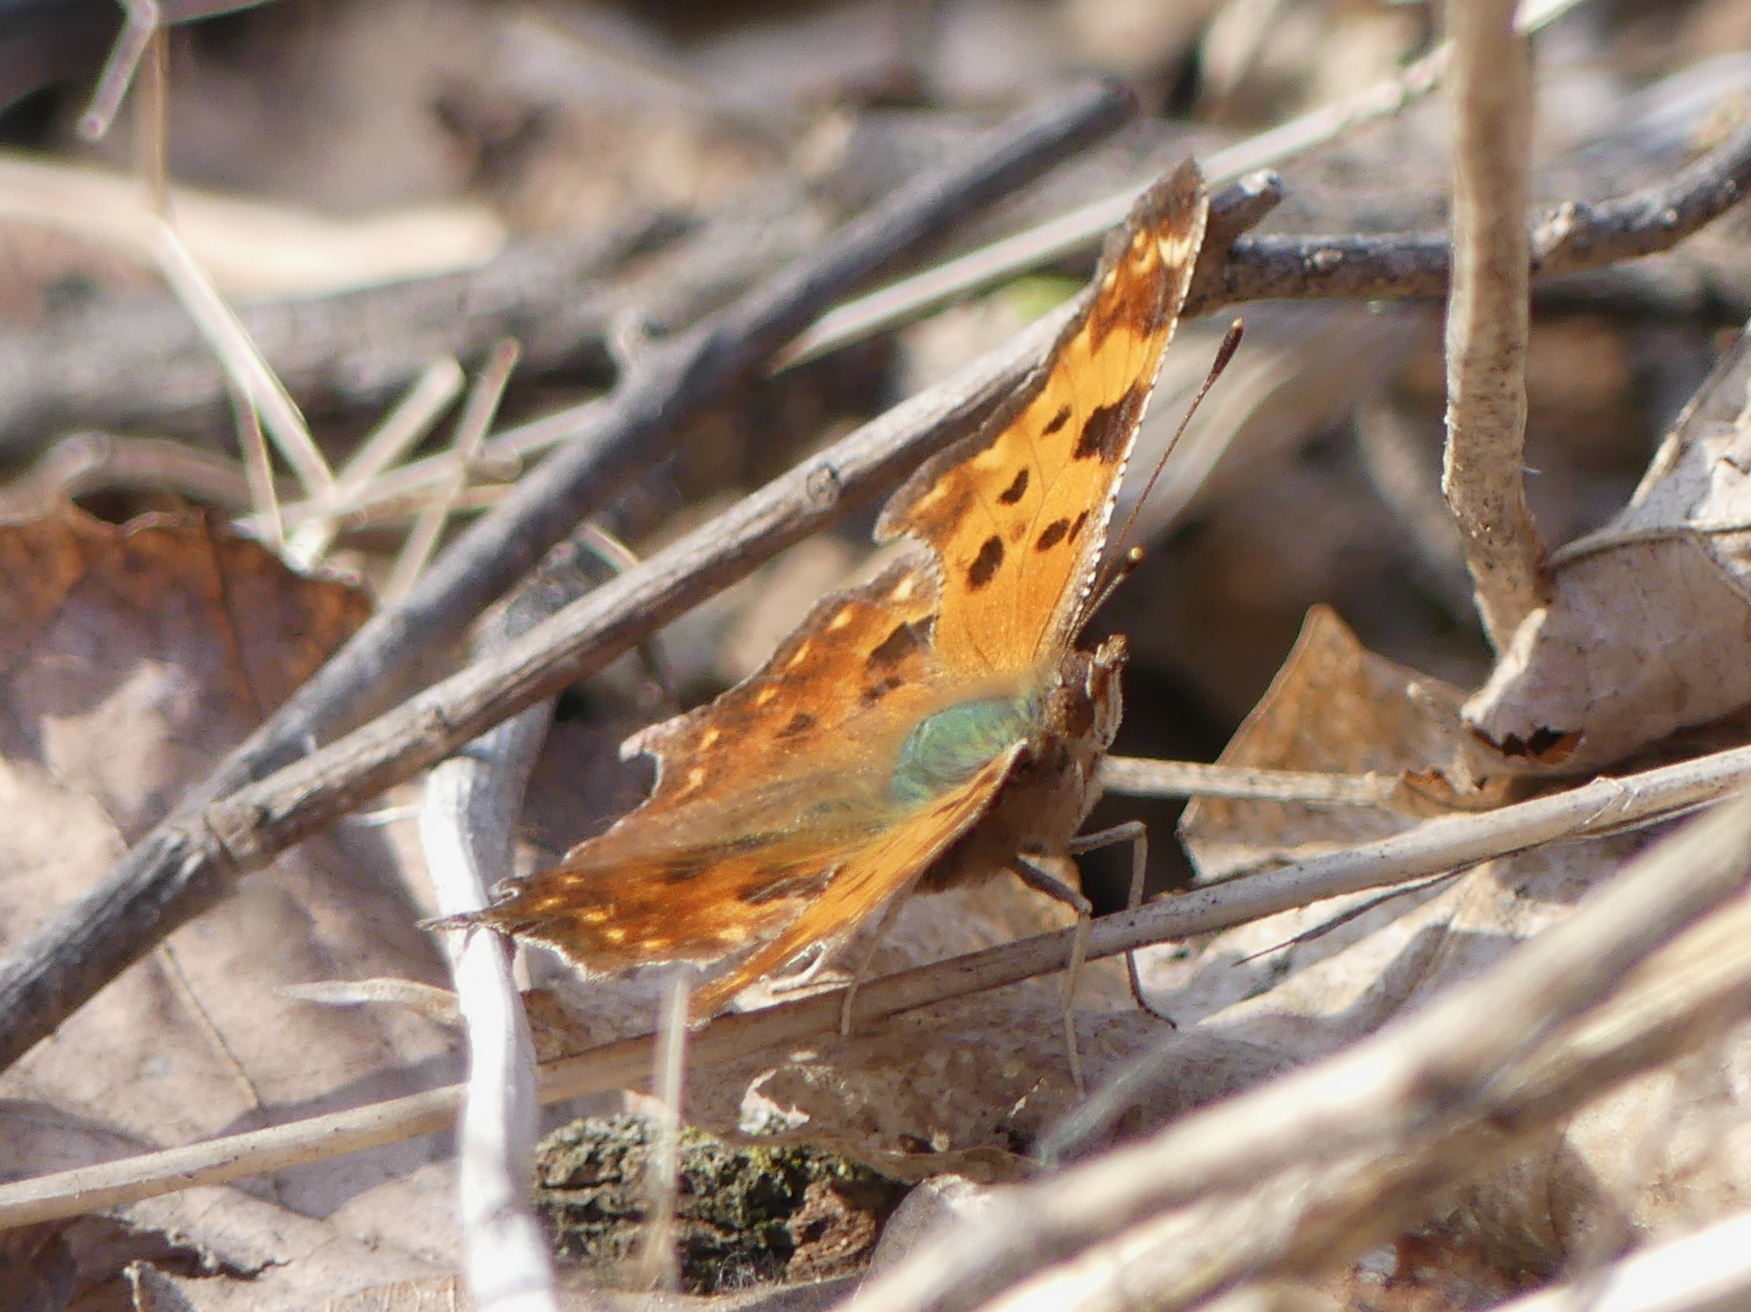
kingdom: Animalia
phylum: Arthropoda
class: Insecta
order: Lepidoptera
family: Nymphalidae
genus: Polygonia
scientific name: Polygonia comma
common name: Eastern comma
